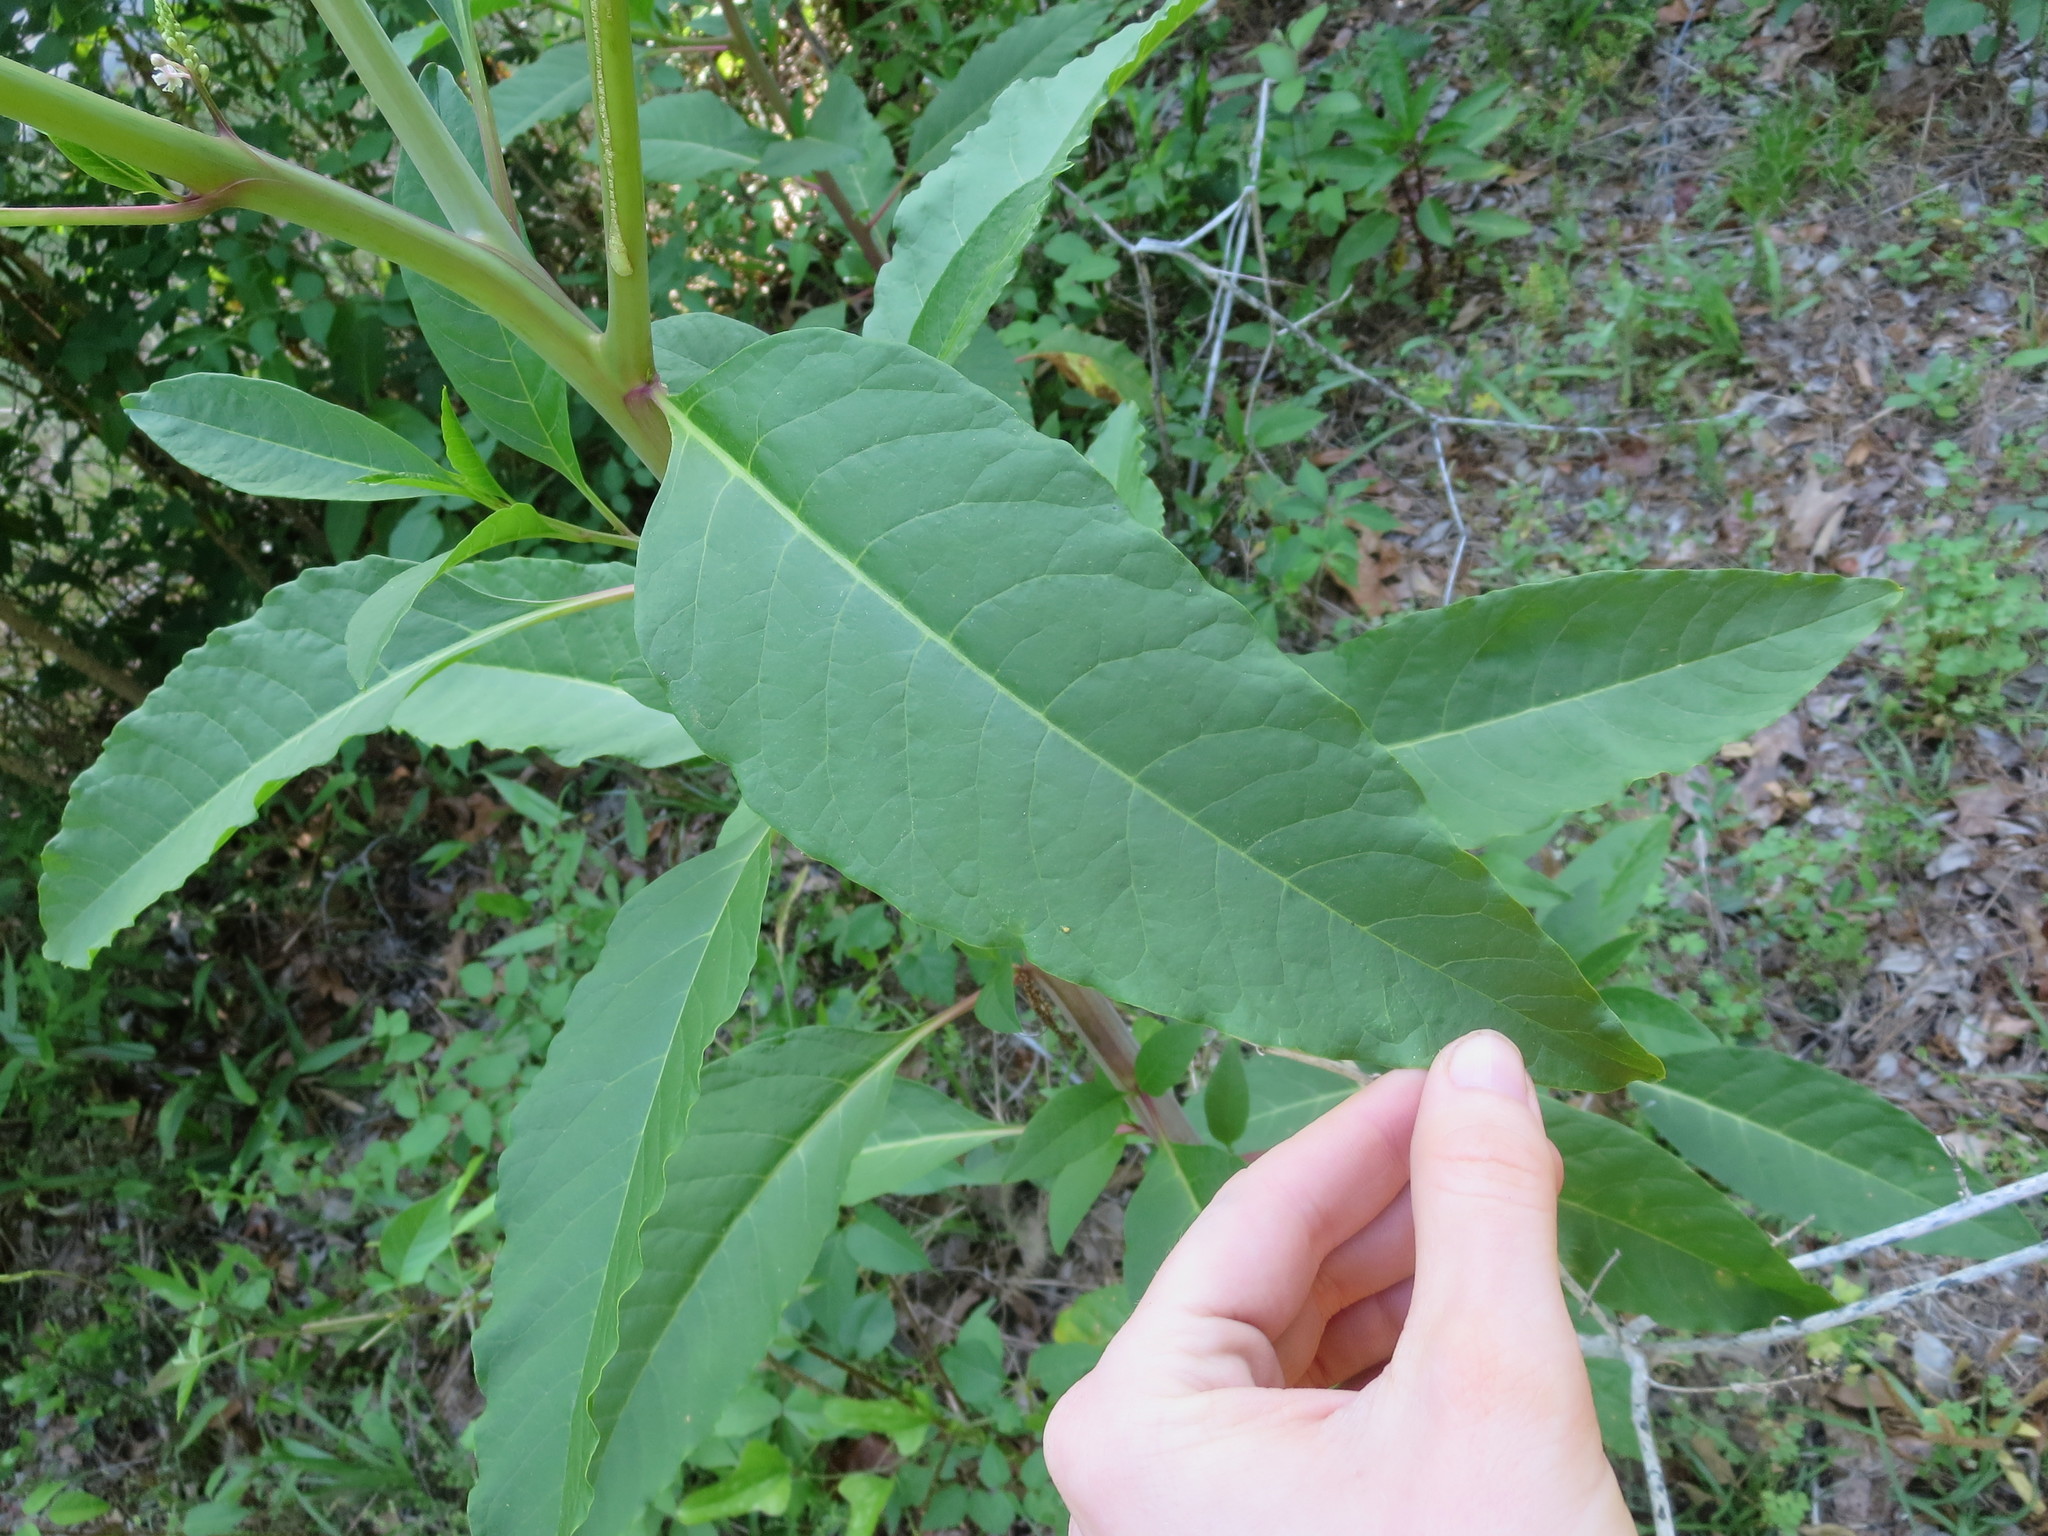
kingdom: Plantae
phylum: Tracheophyta
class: Magnoliopsida
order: Caryophyllales
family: Phytolaccaceae
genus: Phytolacca
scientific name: Phytolacca americana
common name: American pokeweed
